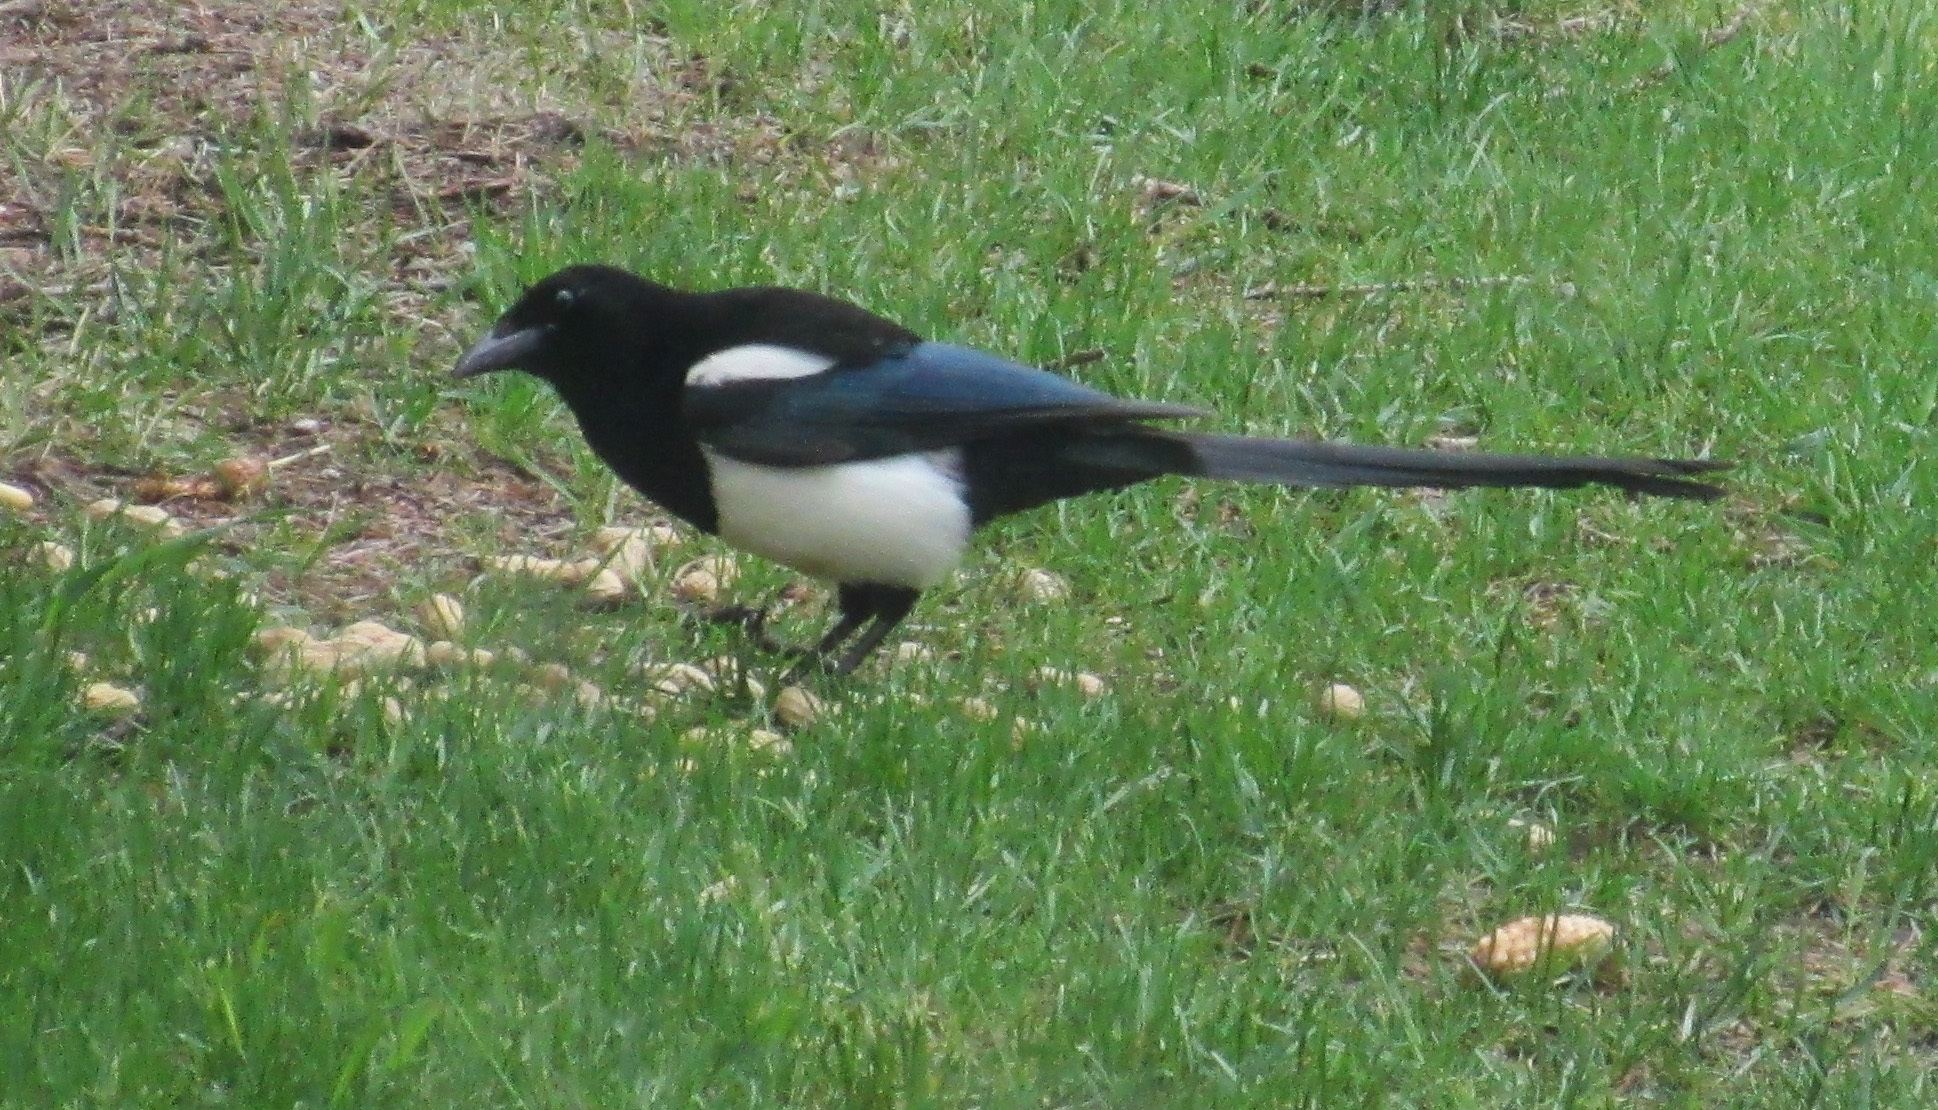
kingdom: Animalia
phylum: Chordata
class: Aves
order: Passeriformes
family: Corvidae
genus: Pica
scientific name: Pica hudsonia
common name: Black-billed magpie
